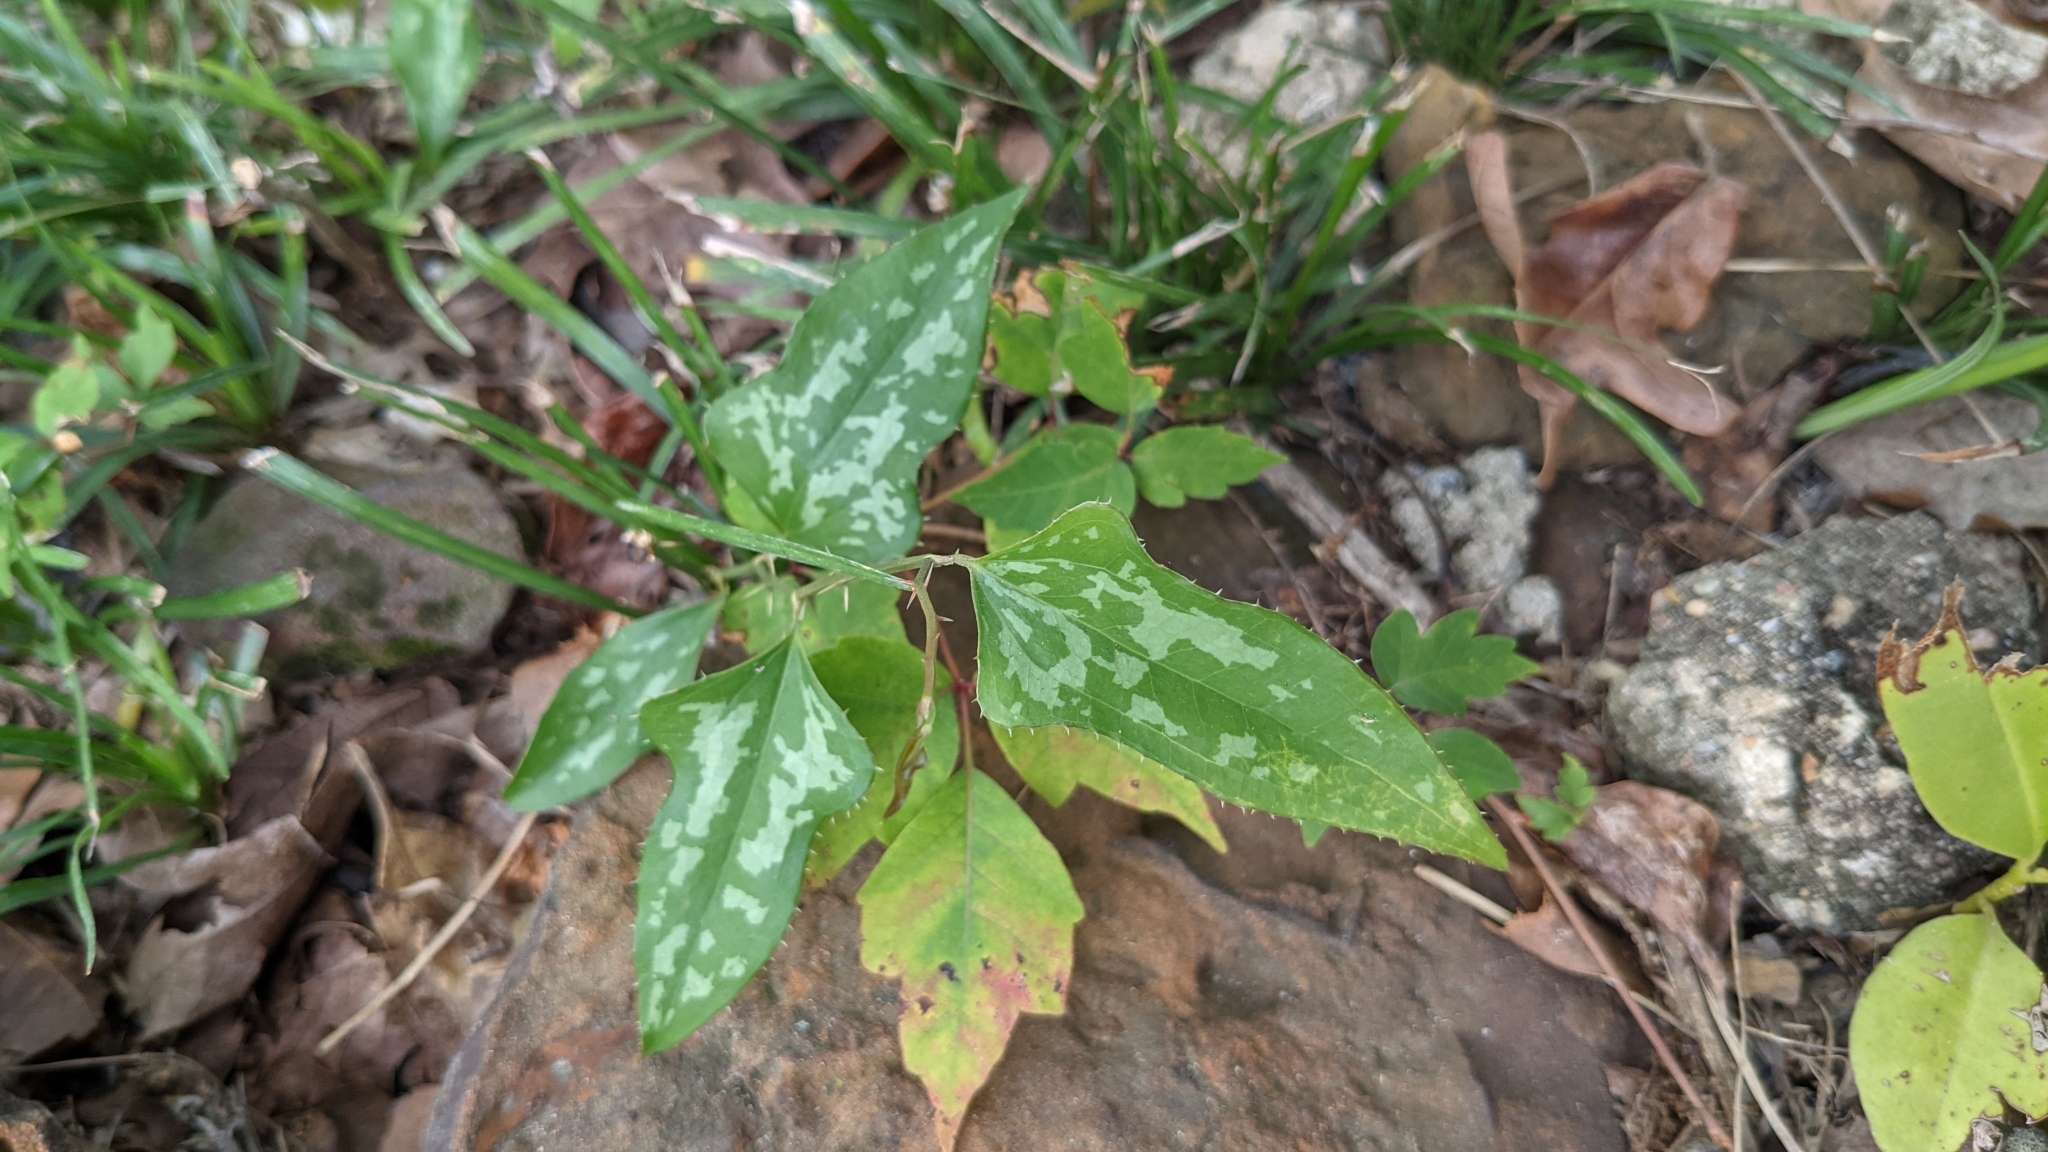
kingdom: Plantae
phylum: Tracheophyta
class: Liliopsida
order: Liliales
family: Smilacaceae
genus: Smilax
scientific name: Smilax bona-nox
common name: Catbrier
